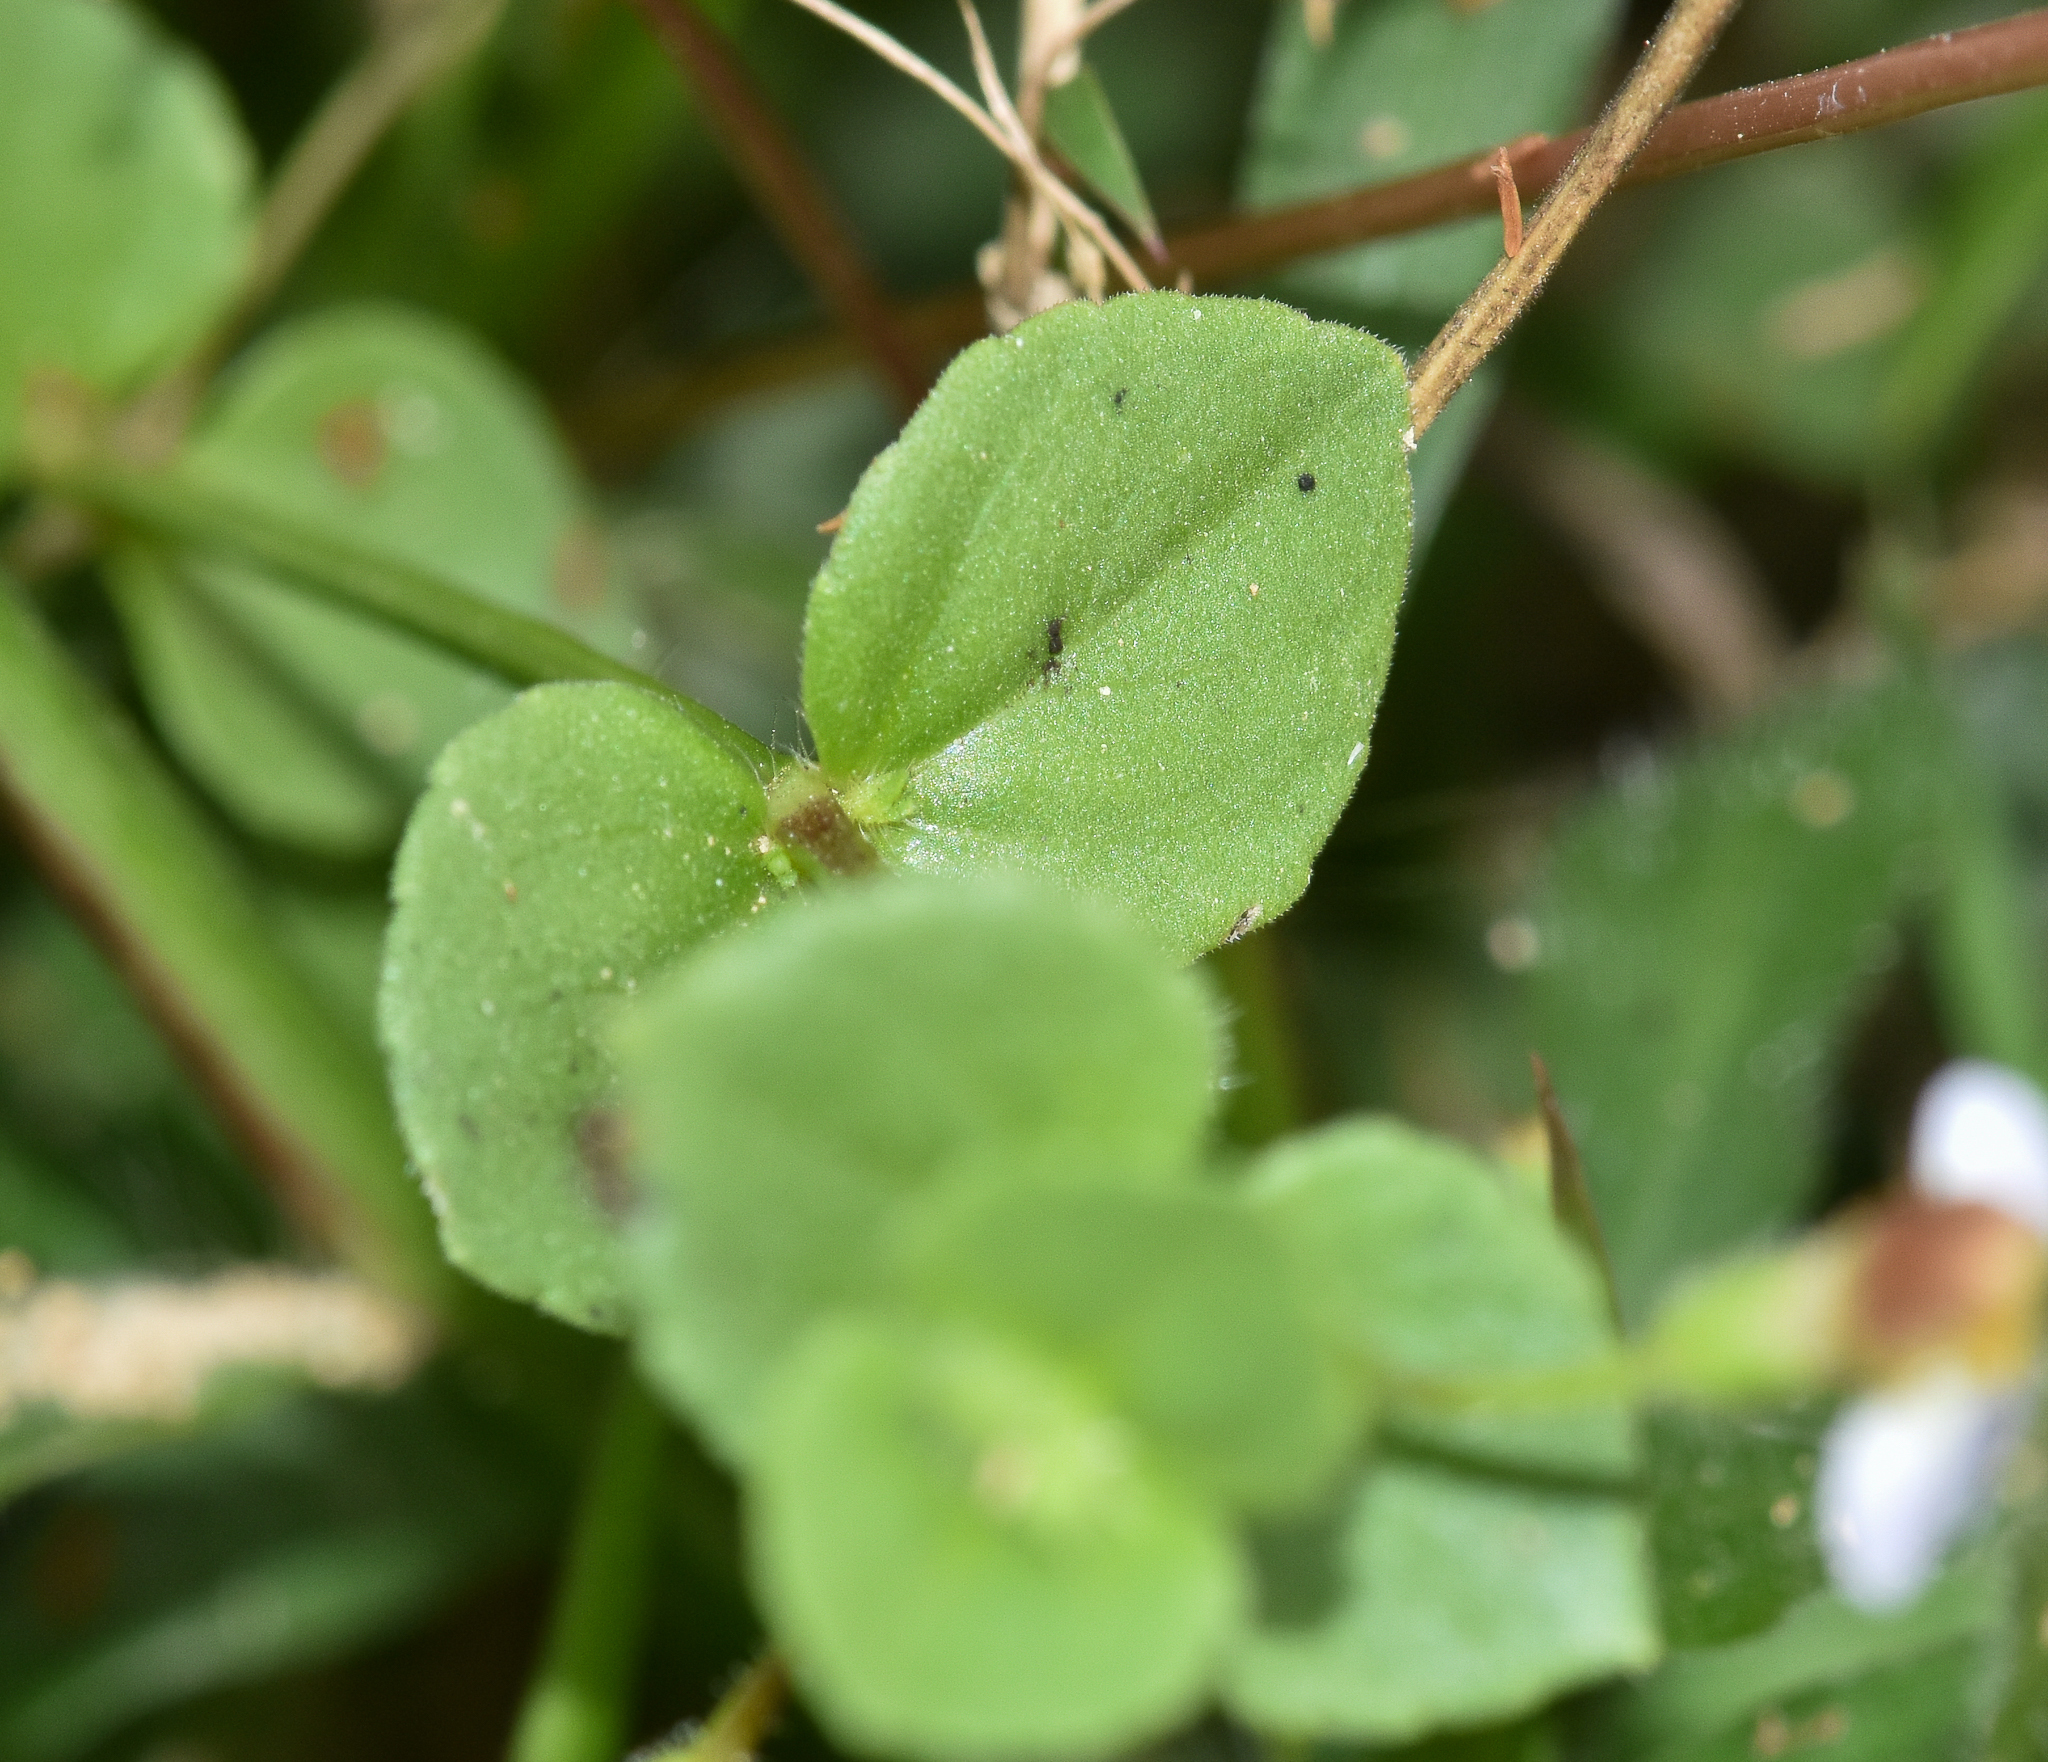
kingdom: Plantae
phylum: Tracheophyta
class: Magnoliopsida
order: Lamiales
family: Linderniaceae
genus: Yamazakia
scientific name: Yamazakia pusilla
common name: Tiny slitwort
